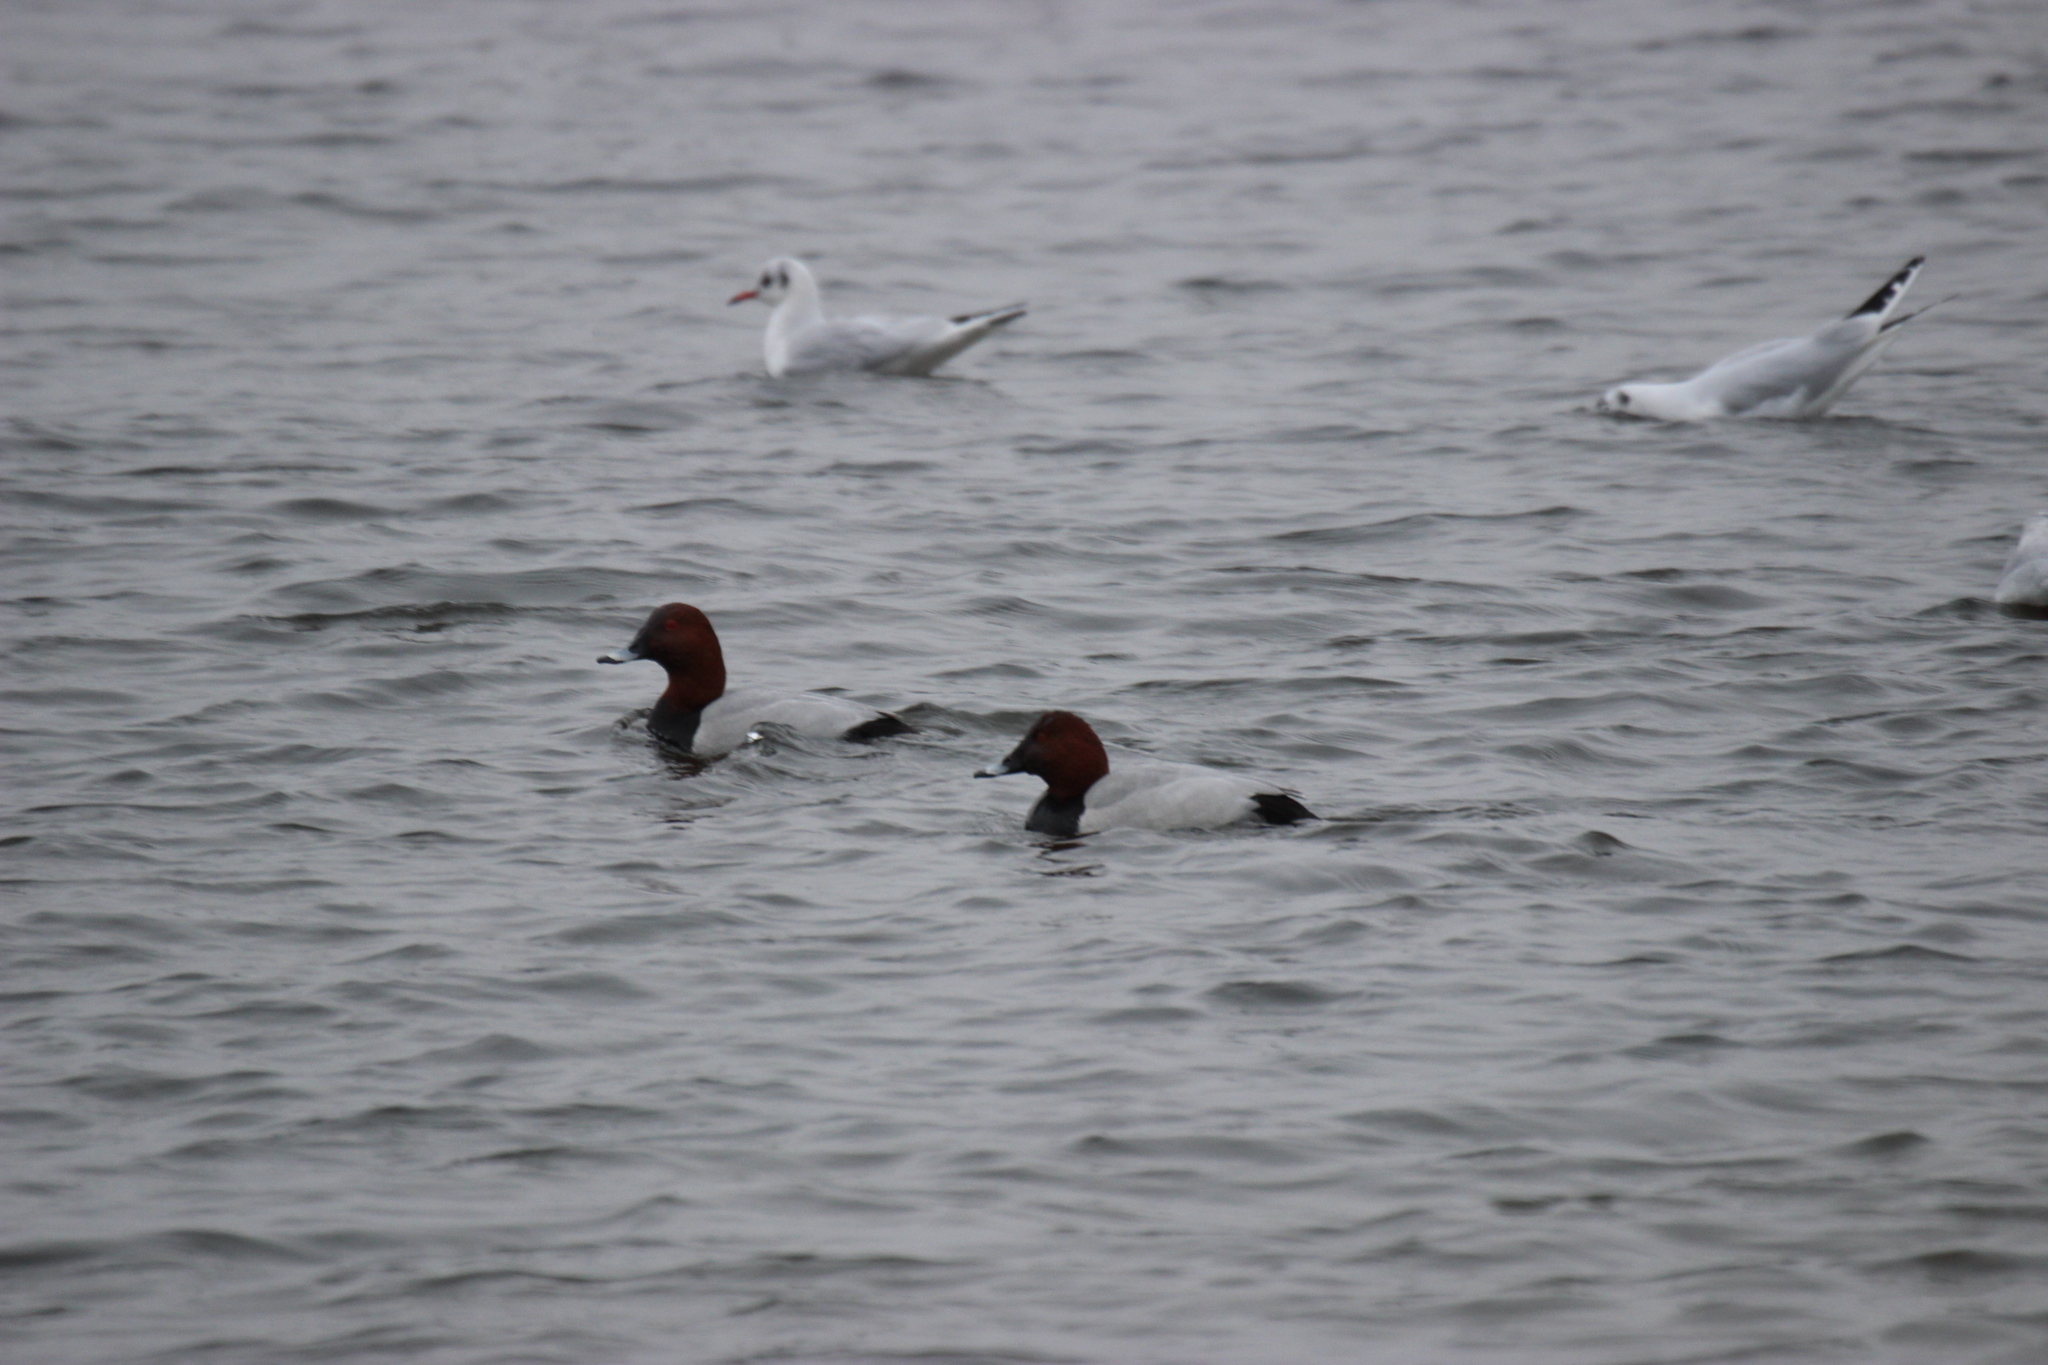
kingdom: Animalia
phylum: Chordata
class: Aves
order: Anseriformes
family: Anatidae
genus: Aythya
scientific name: Aythya ferina
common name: Common pochard
